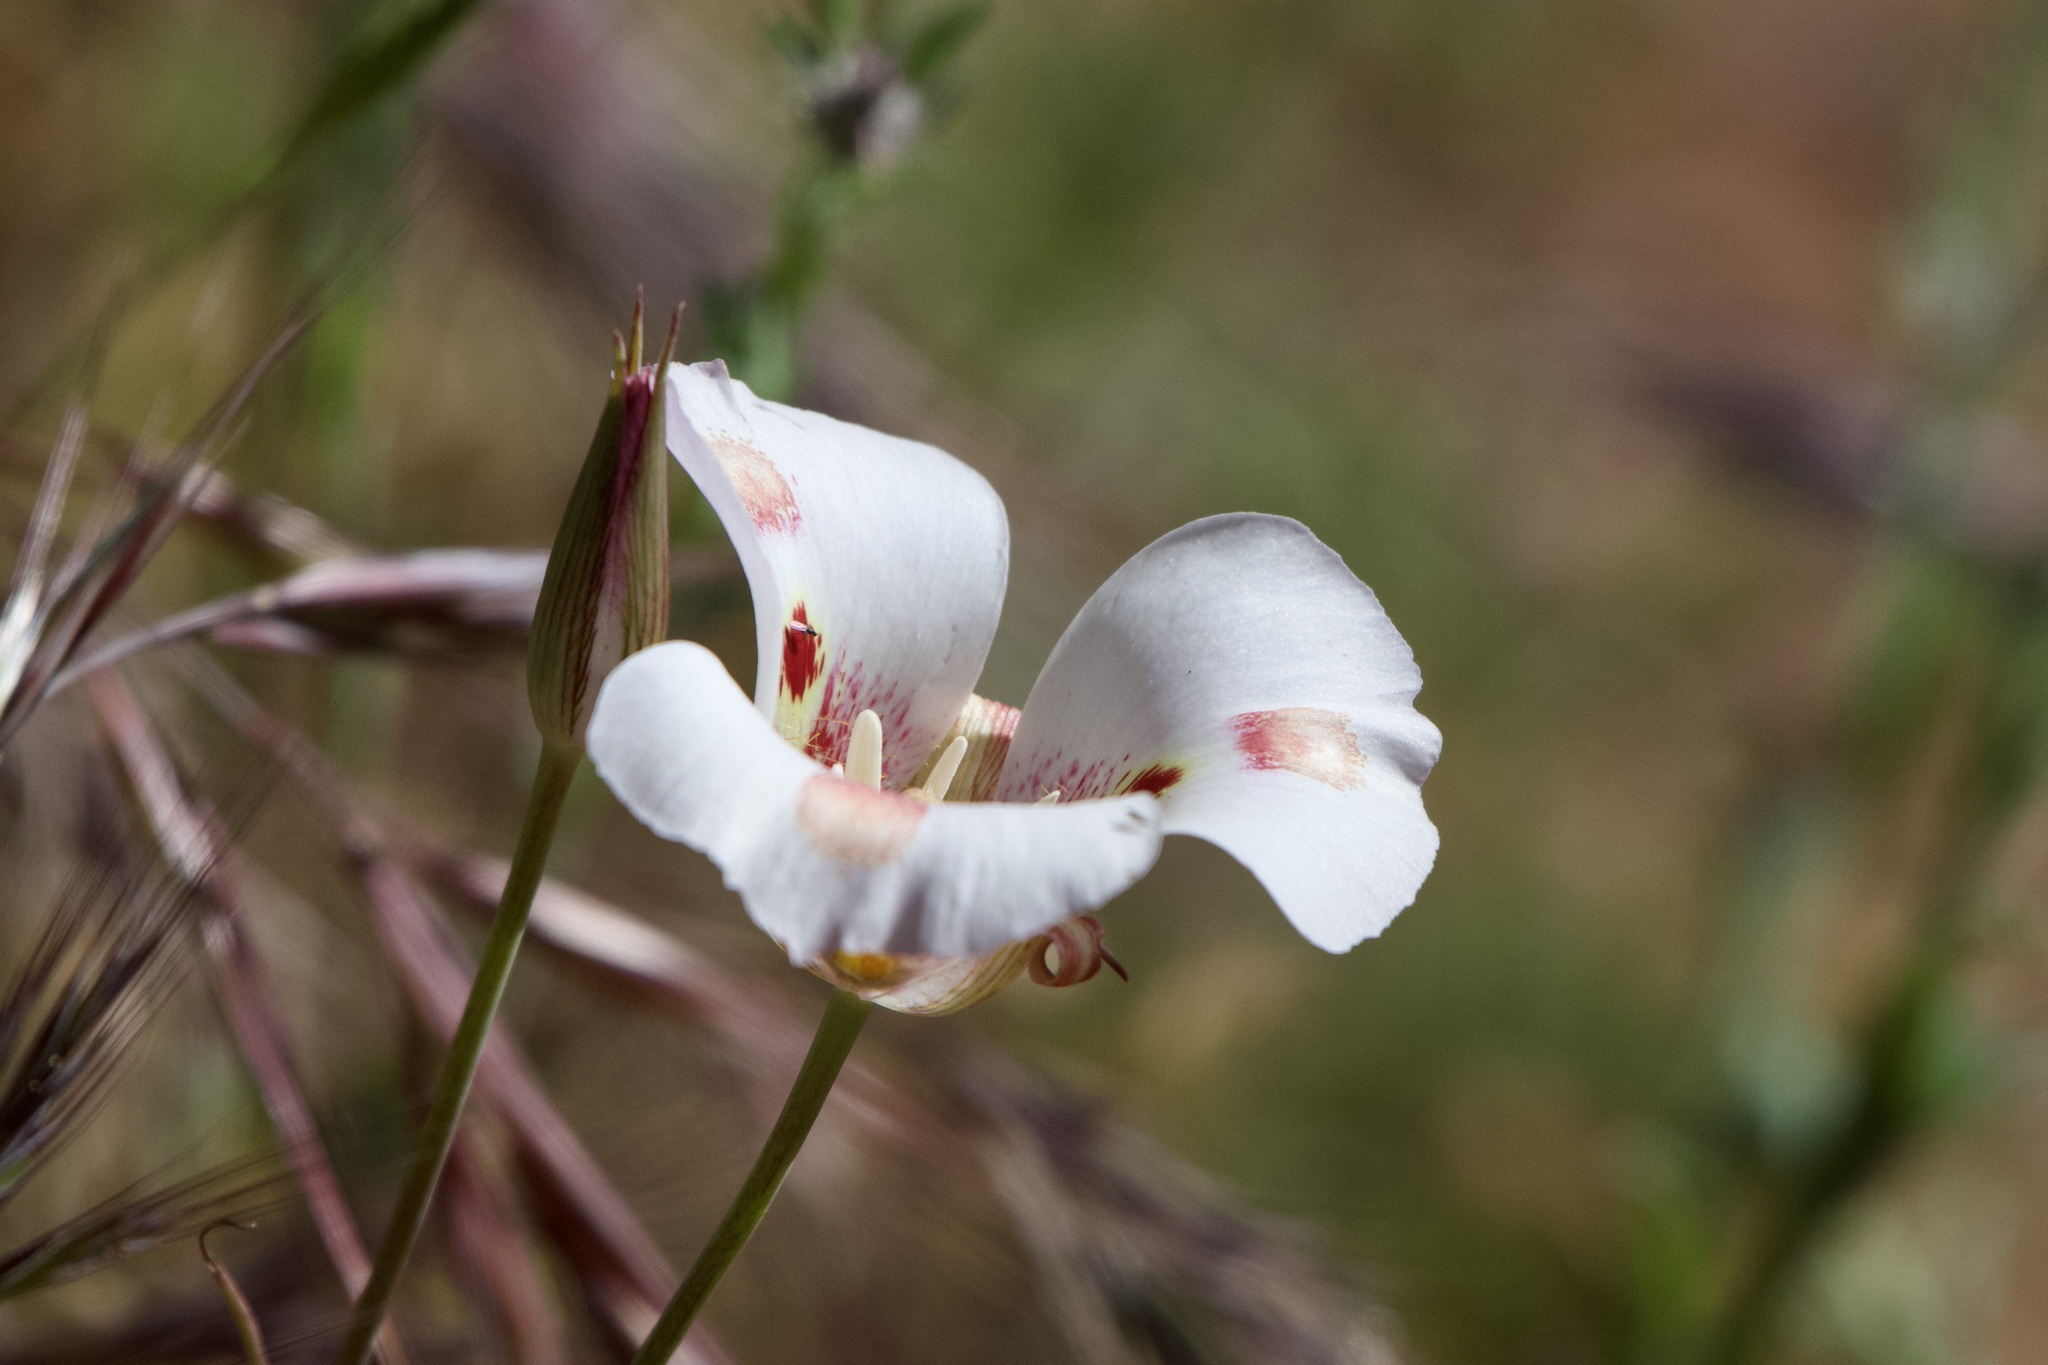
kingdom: Plantae
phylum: Tracheophyta
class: Liliopsida
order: Liliales
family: Liliaceae
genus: Calochortus
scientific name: Calochortus venustus
